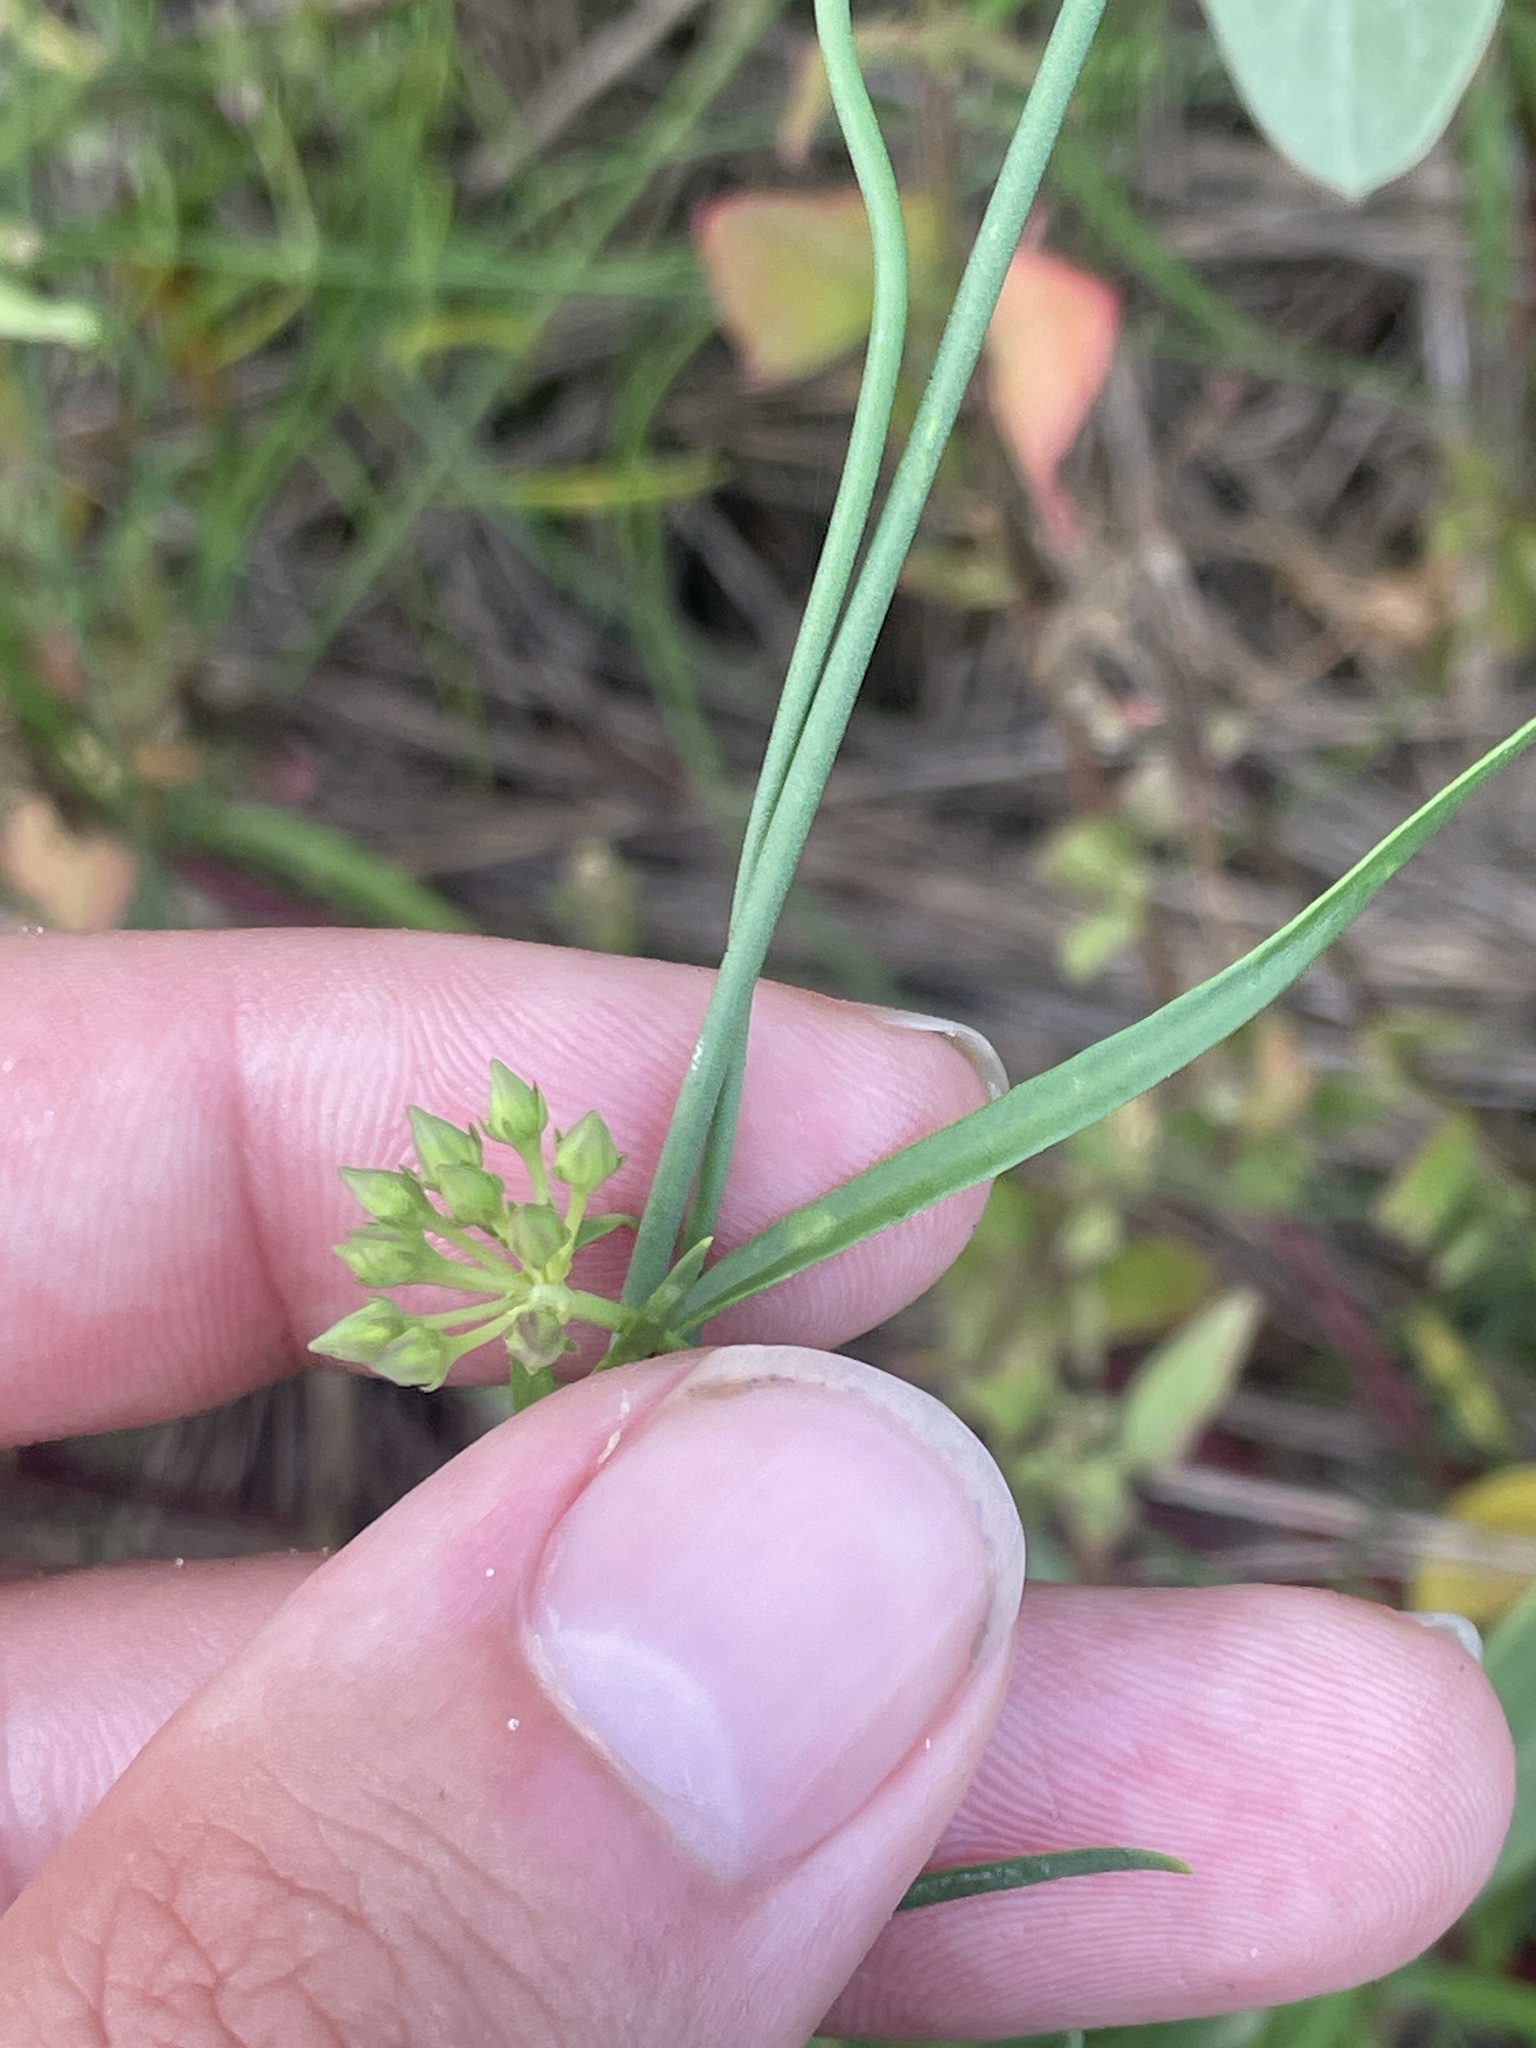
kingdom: Plantae
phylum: Tracheophyta
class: Magnoliopsida
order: Gentianales
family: Apocynaceae
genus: Pattalias
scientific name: Pattalias
